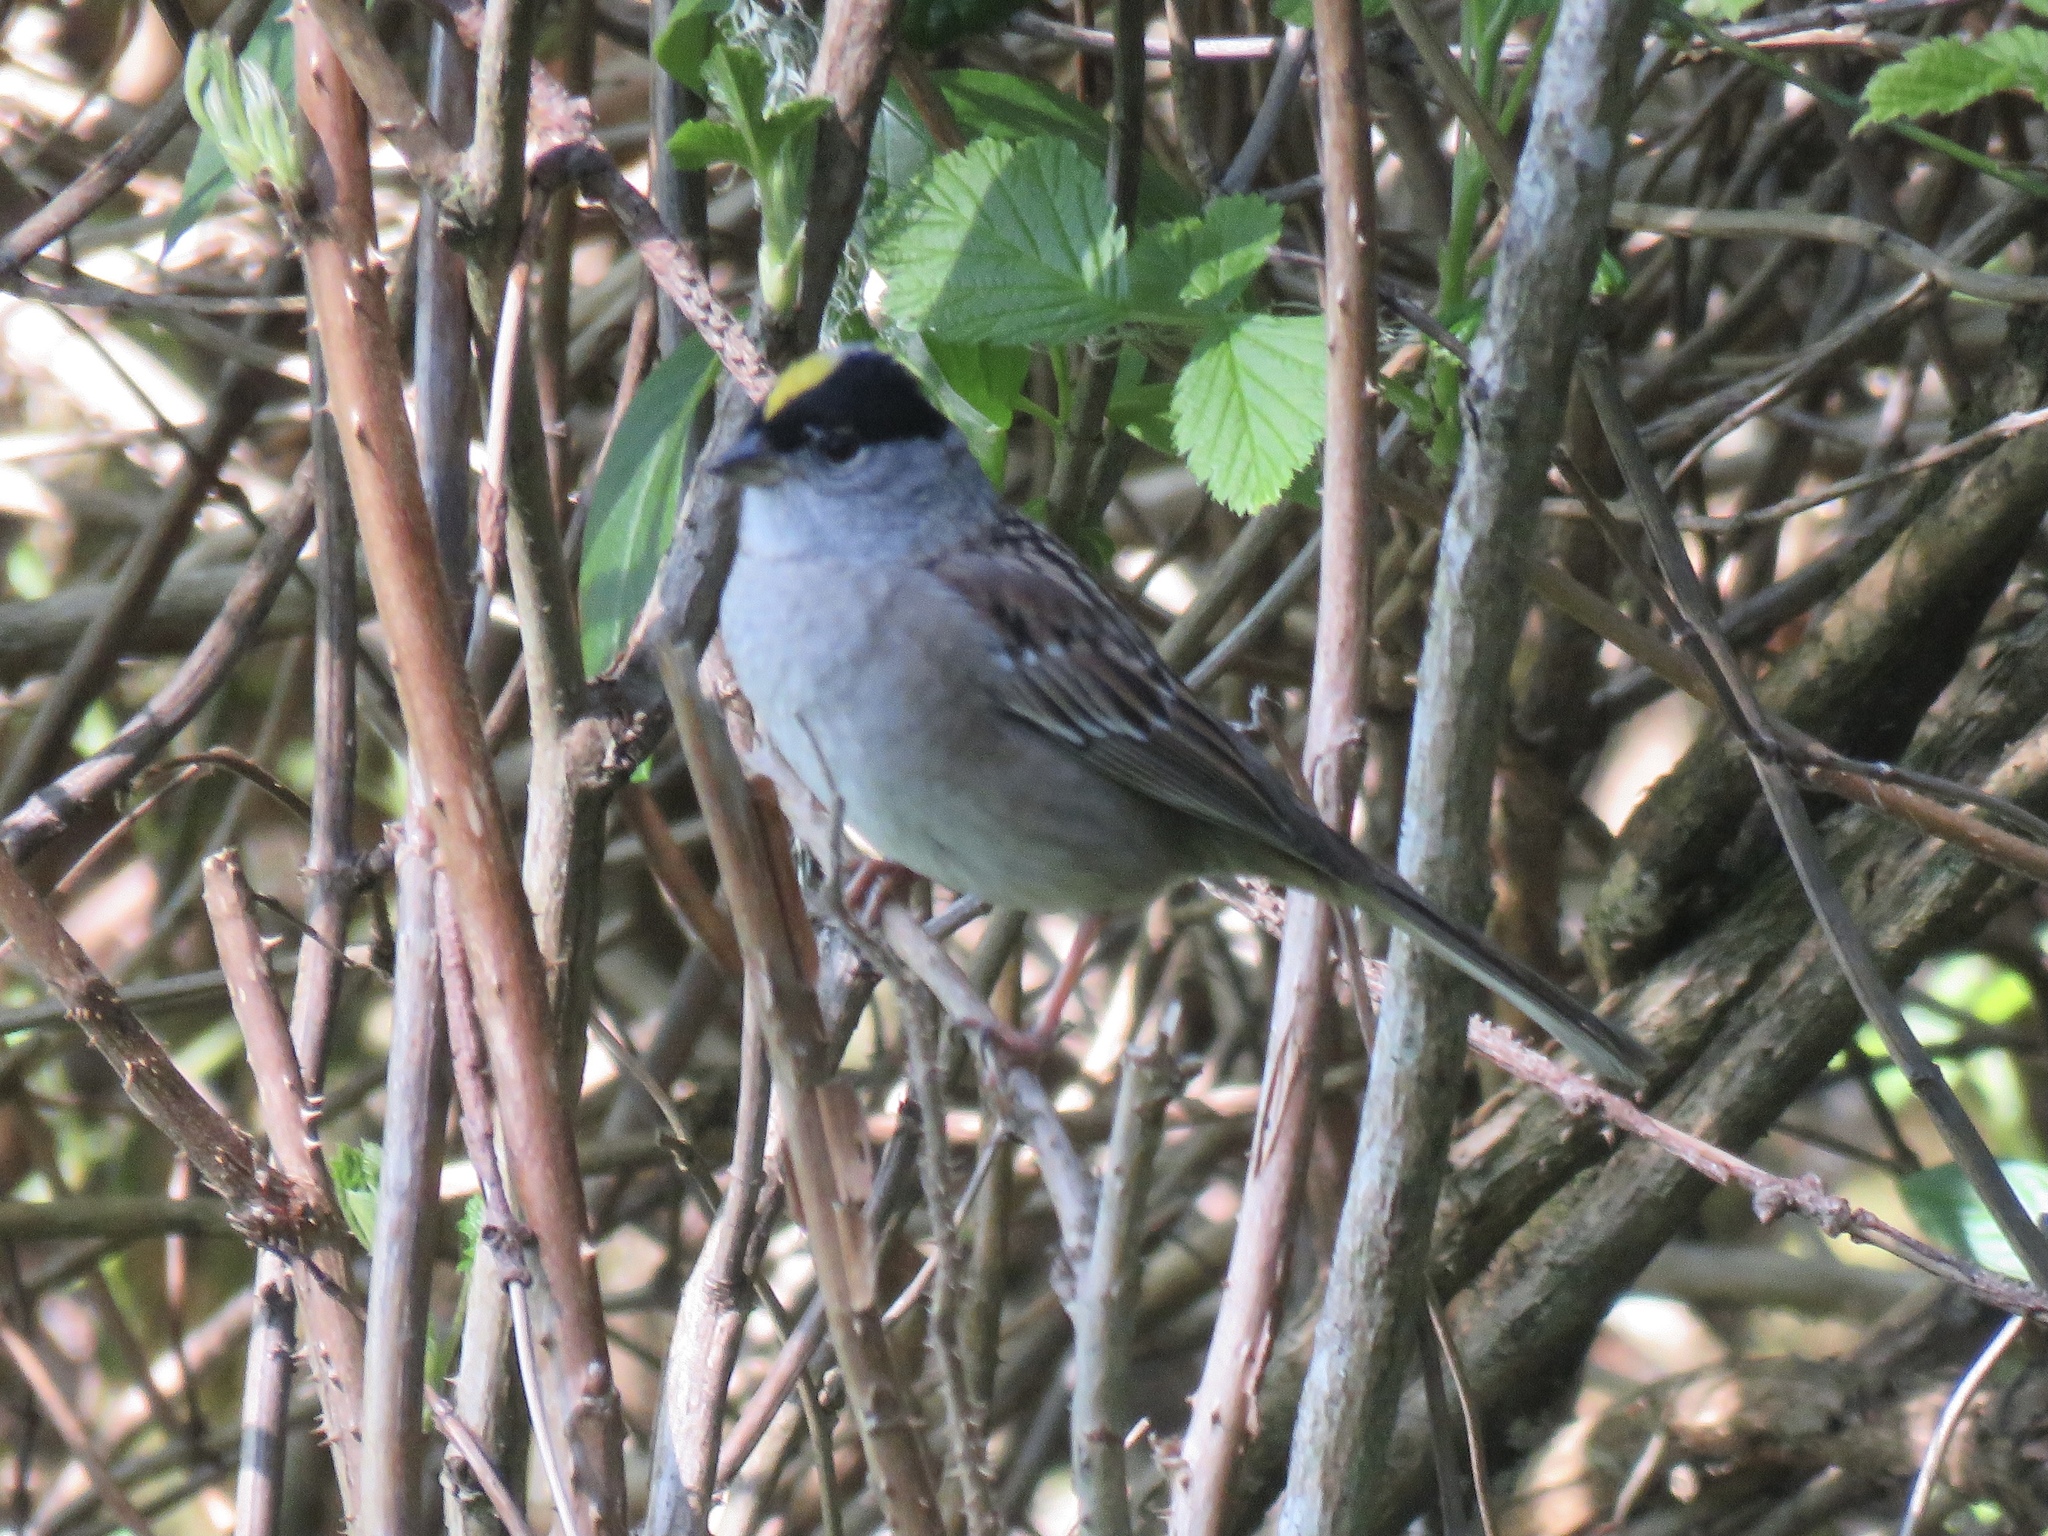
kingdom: Animalia
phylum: Chordata
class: Aves
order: Passeriformes
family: Passerellidae
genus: Zonotrichia
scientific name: Zonotrichia atricapilla
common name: Golden-crowned sparrow
